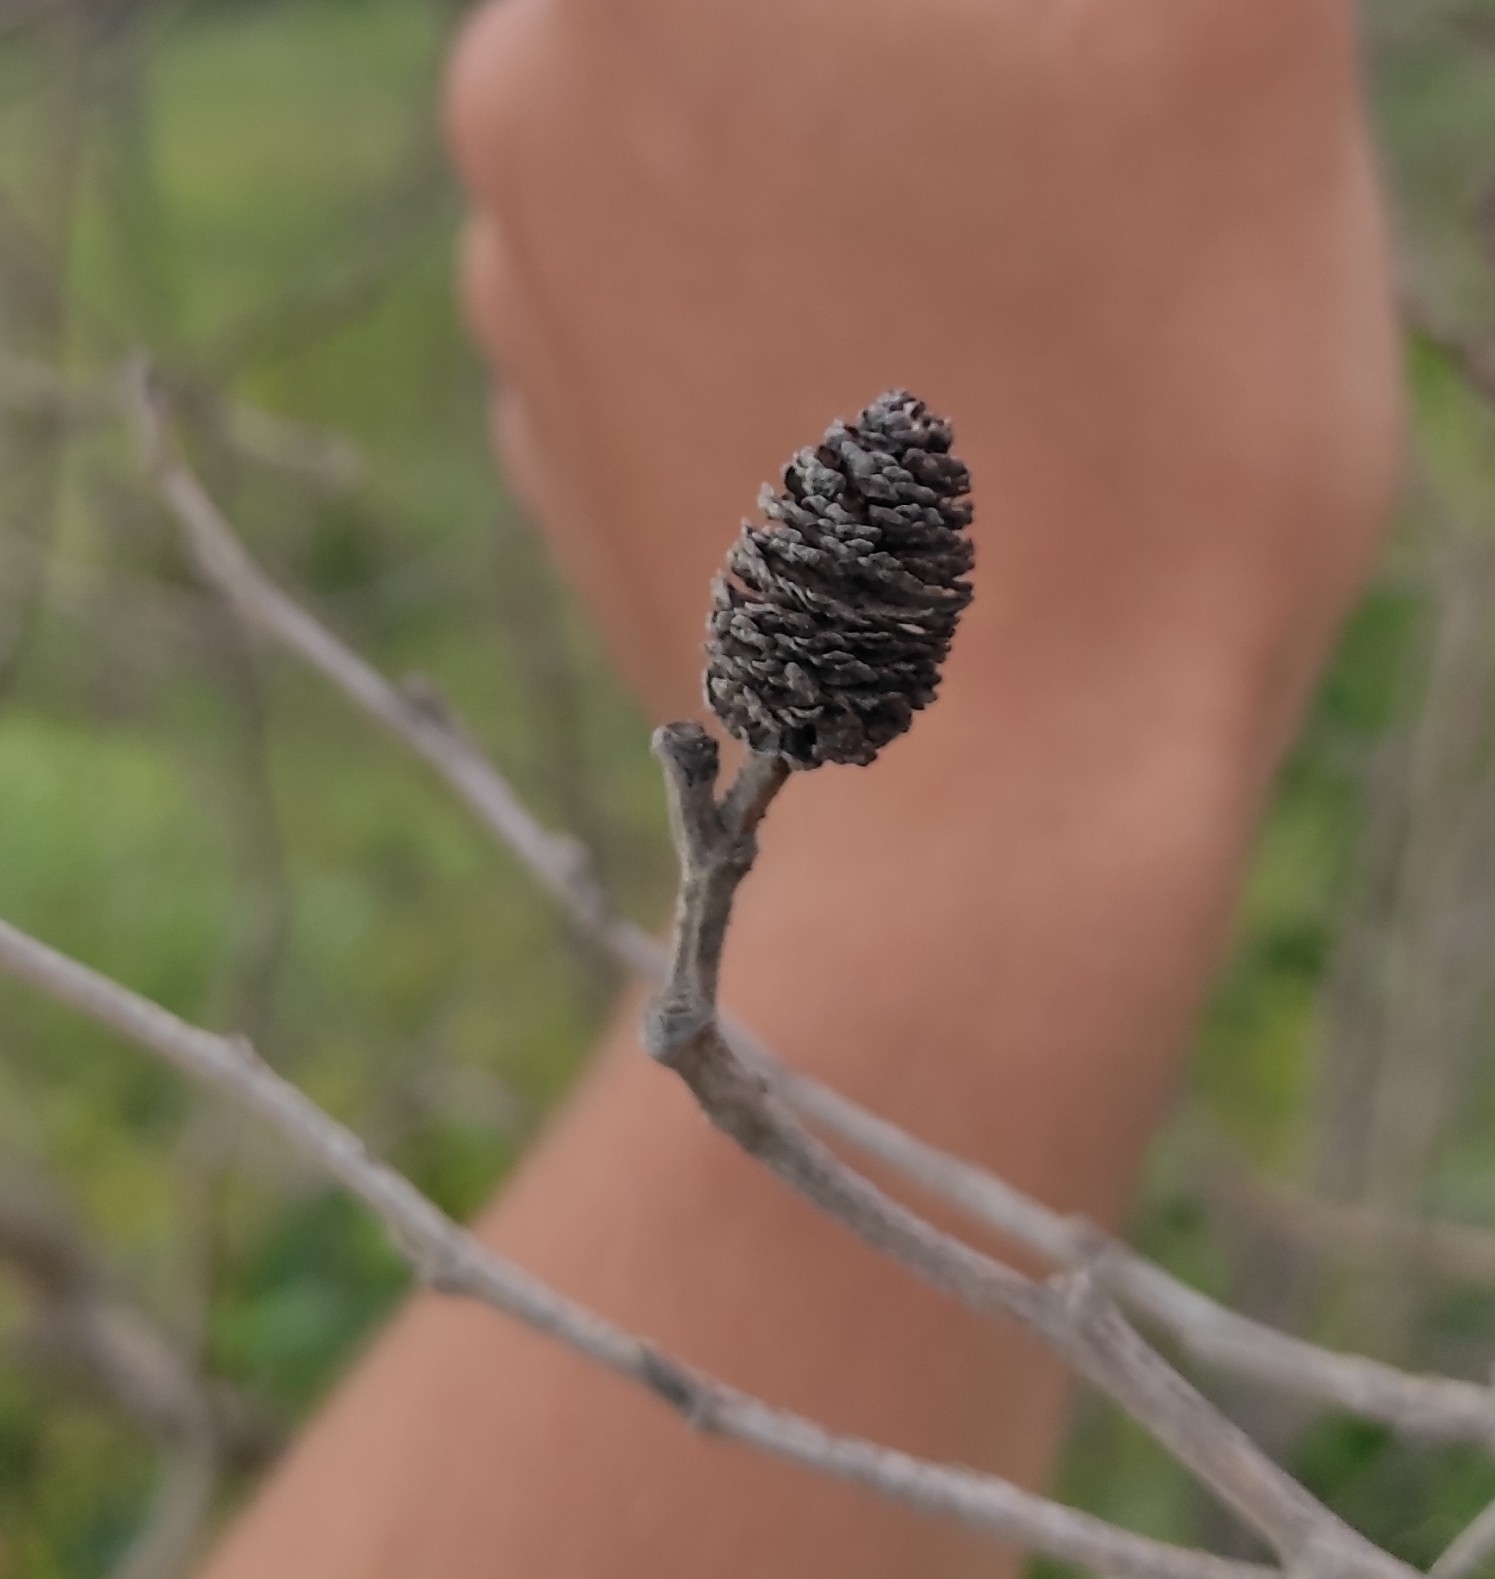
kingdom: Plantae
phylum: Tracheophyta
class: Magnoliopsida
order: Fagales
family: Betulaceae
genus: Alnus
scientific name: Alnus japonica
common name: Japanese alder
